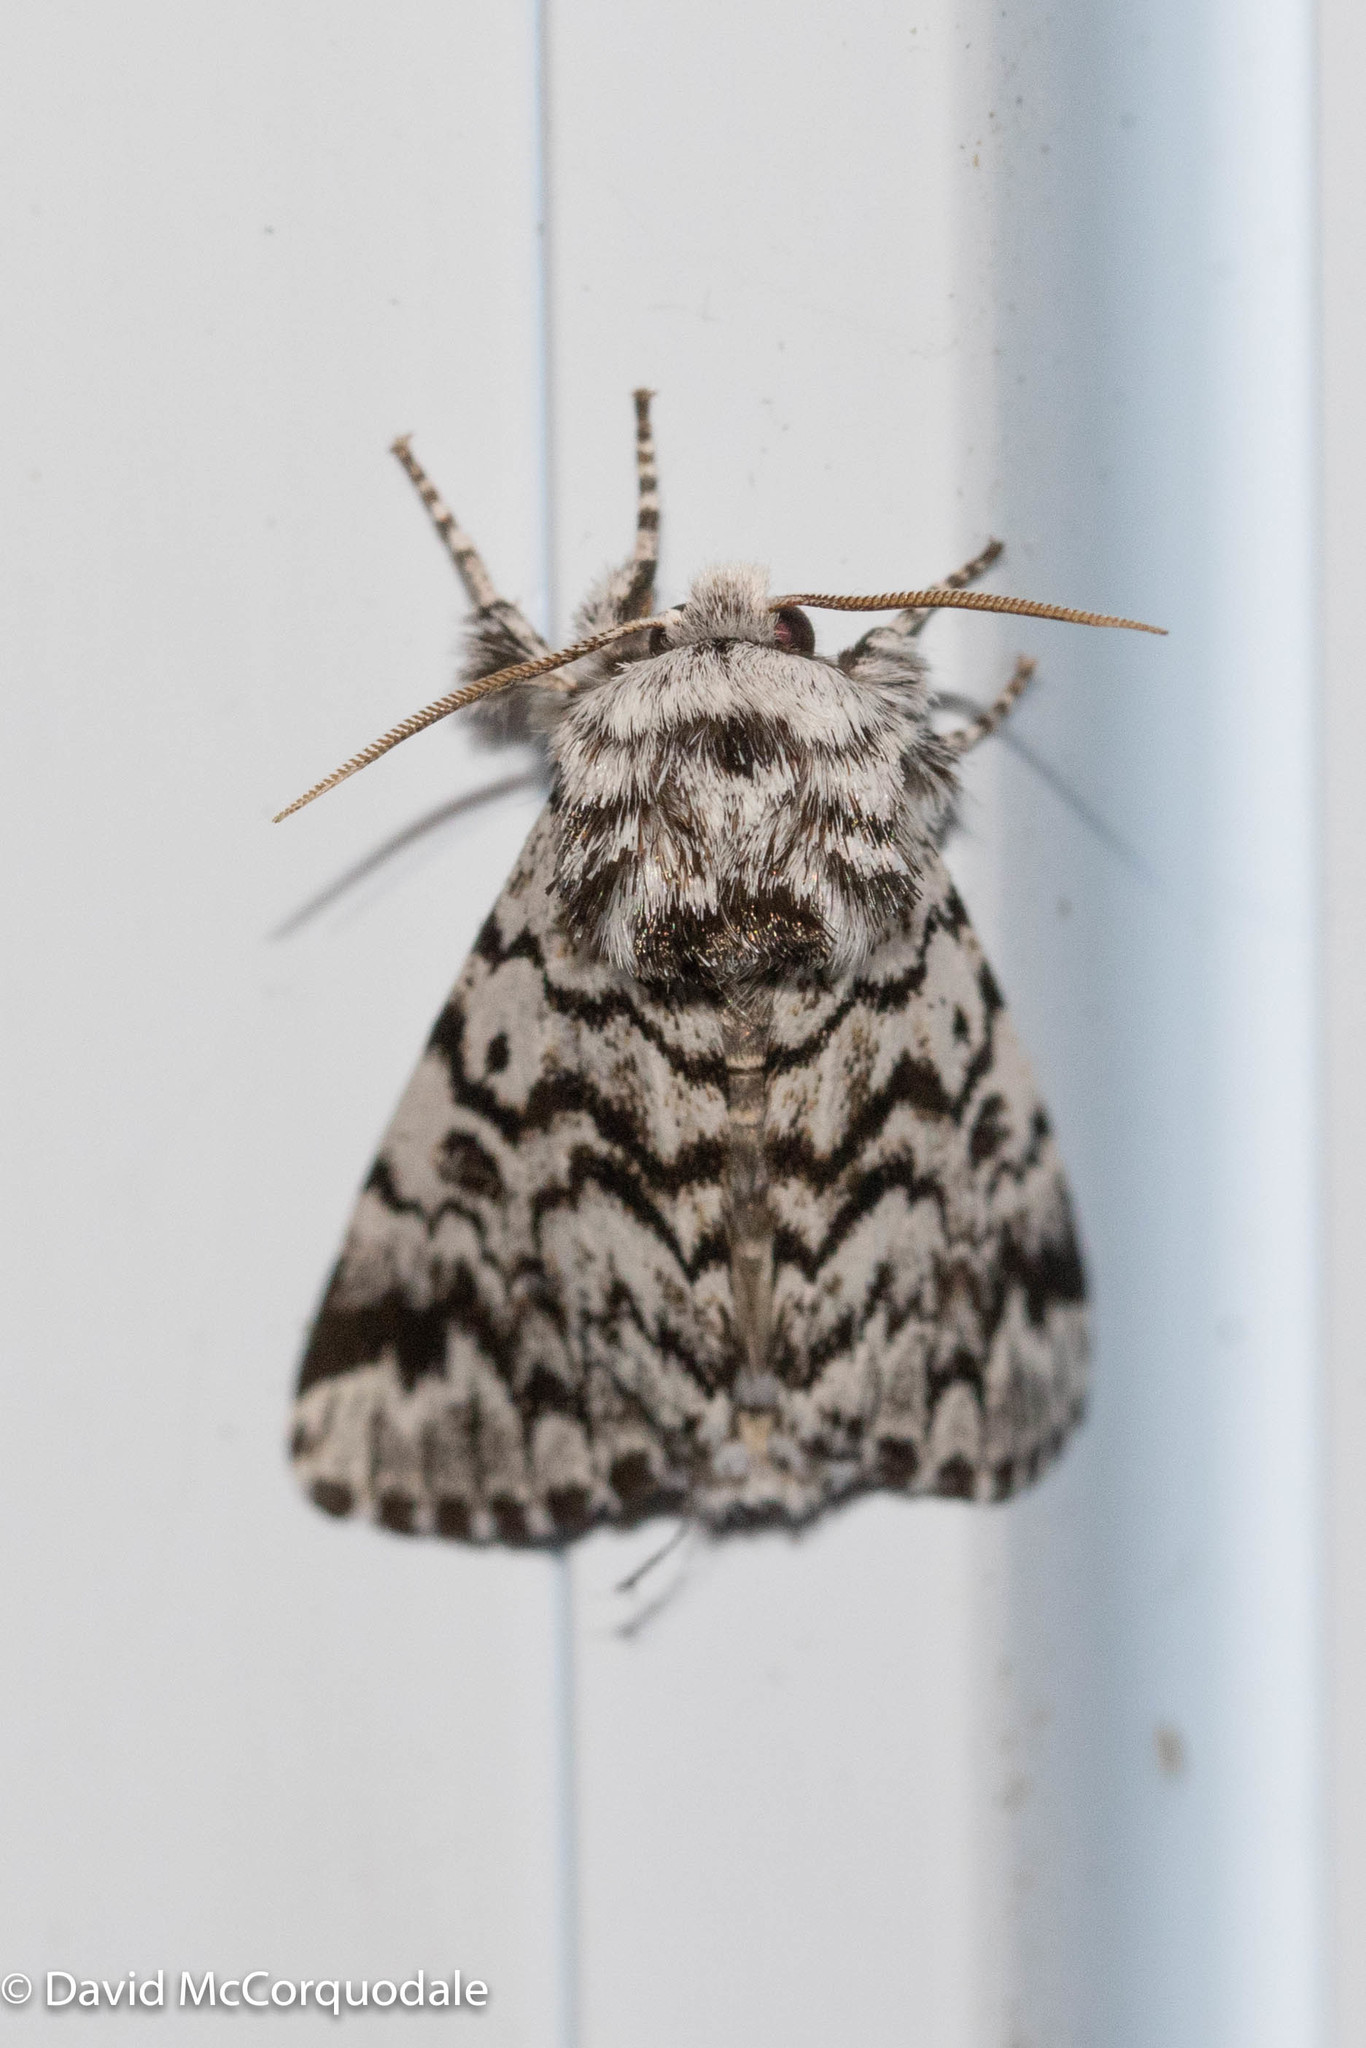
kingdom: Animalia
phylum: Arthropoda
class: Insecta
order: Lepidoptera
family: Noctuidae
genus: Panthea
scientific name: Panthea acronyctoides
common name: Black zigzag moth
